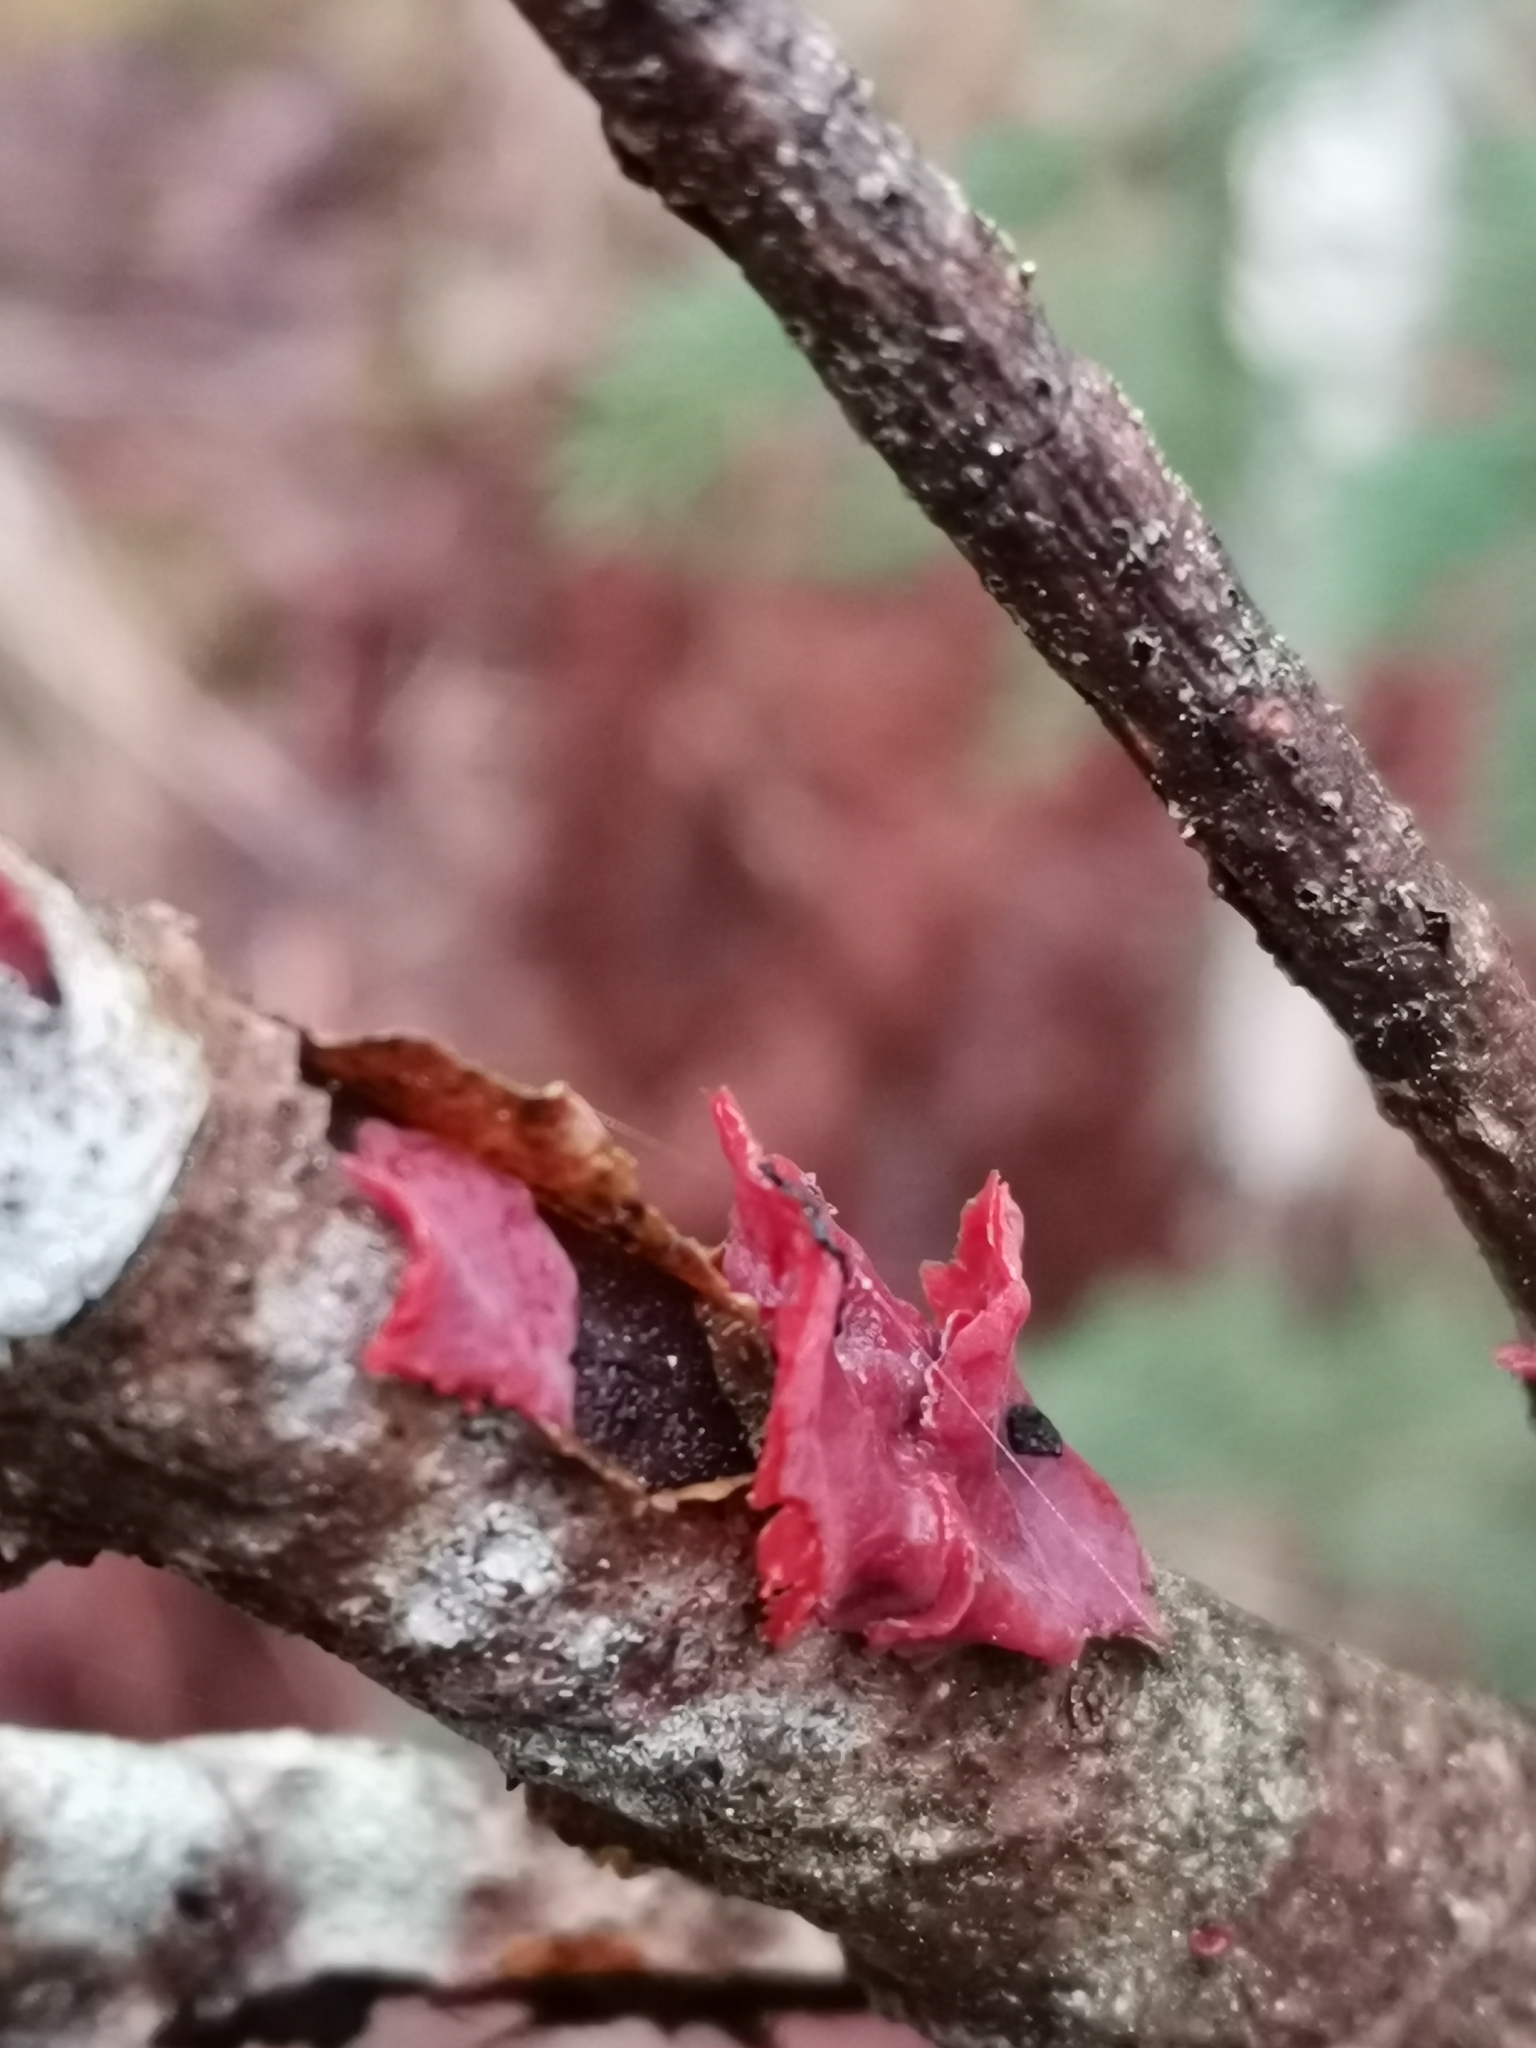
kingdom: Fungi
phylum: Basidiomycota
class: Agaricomycetes
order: Corticiales
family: Vuilleminiaceae
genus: Cytidia
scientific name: Cytidia salicina
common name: Scarlet splash
